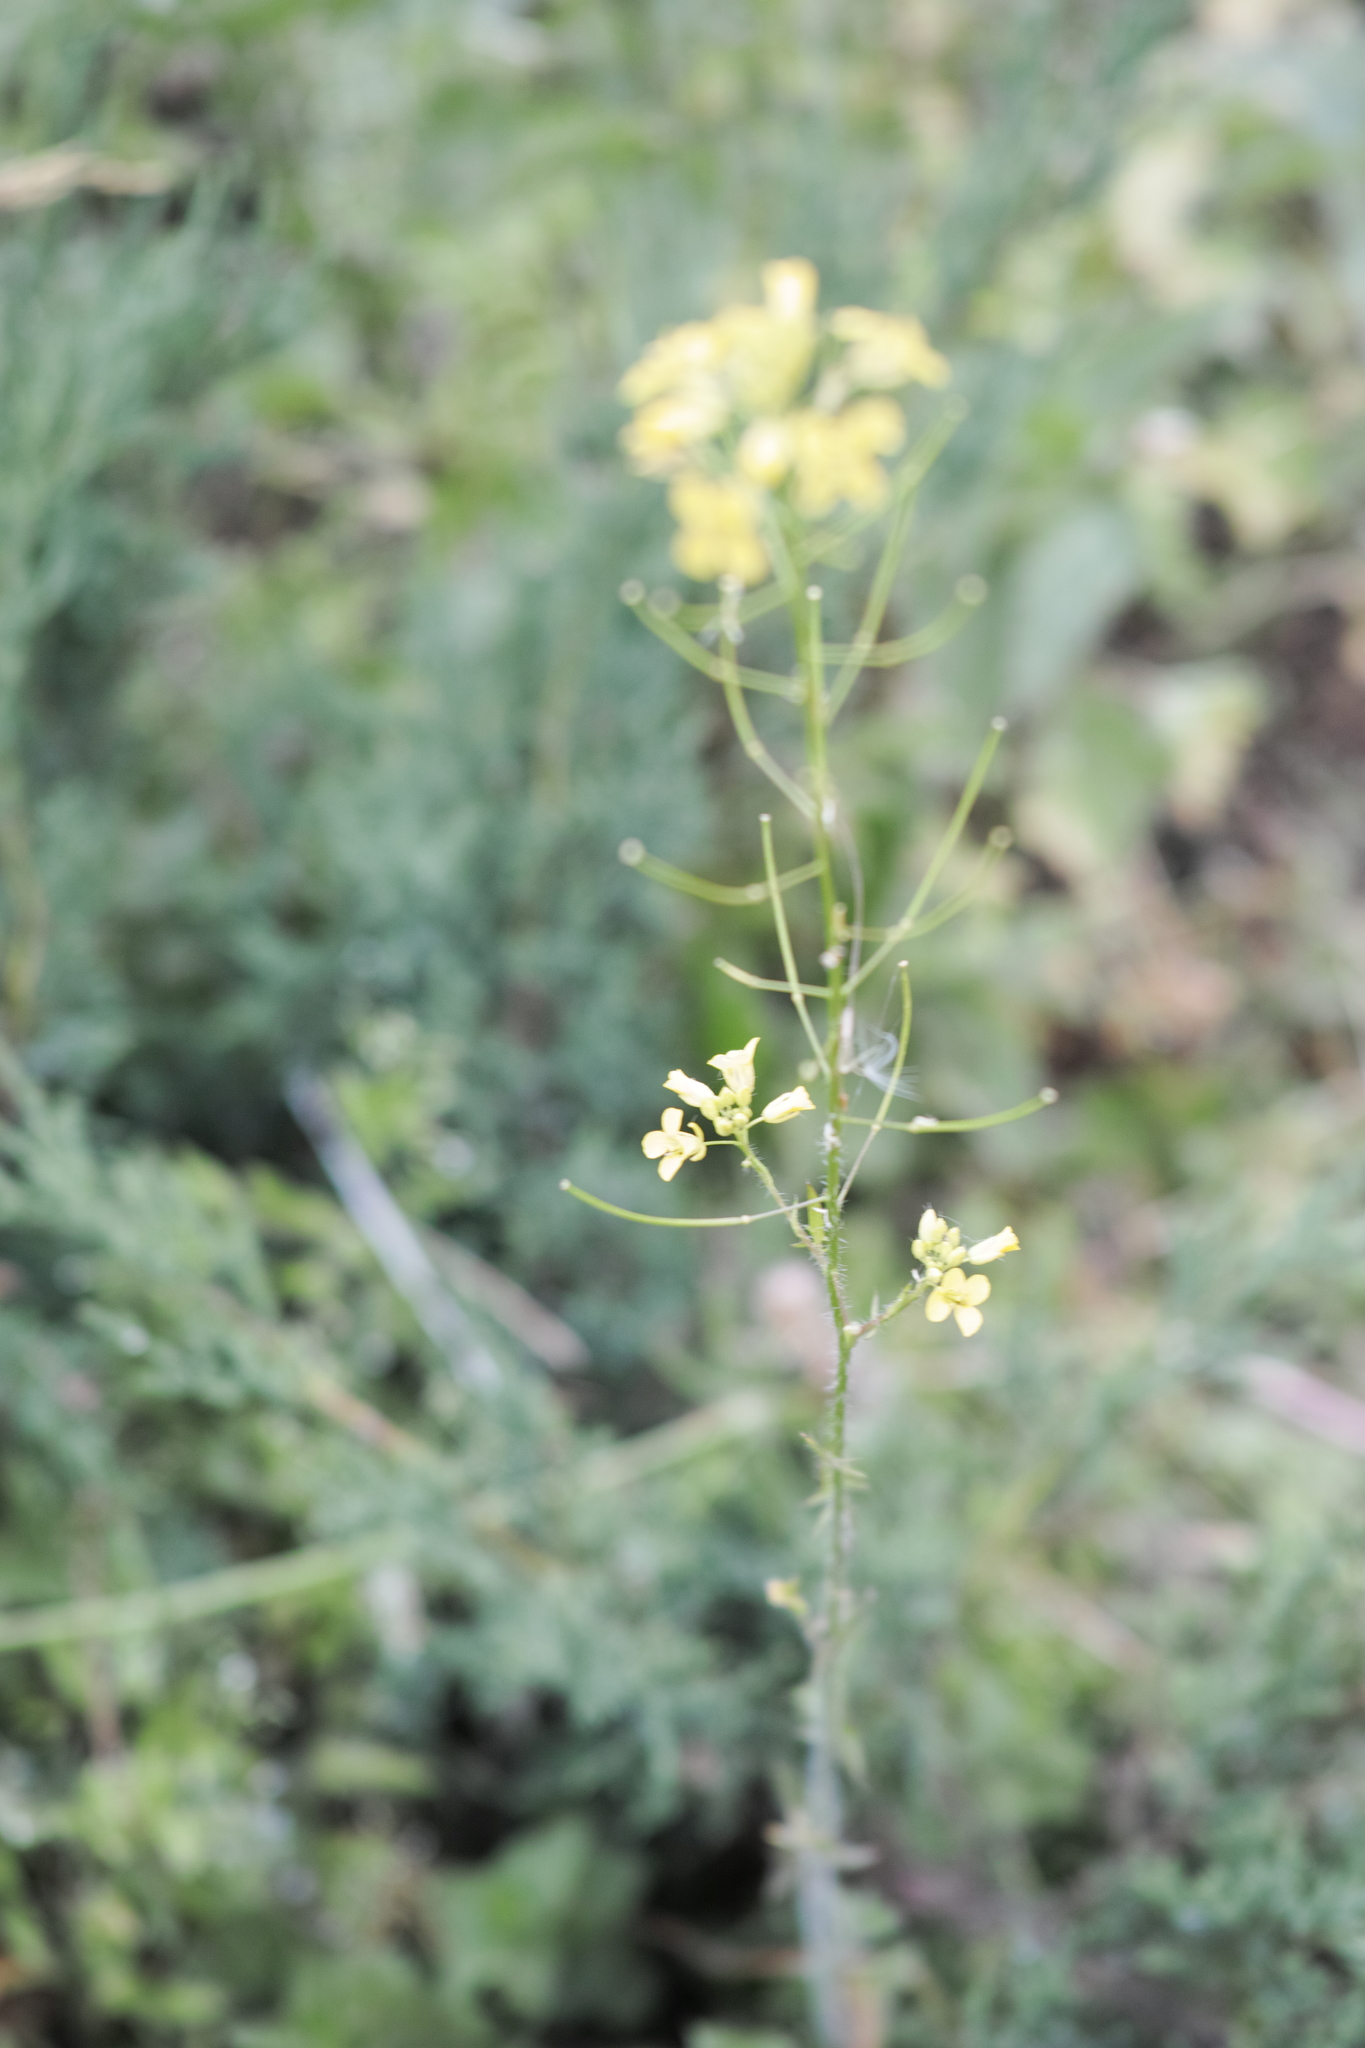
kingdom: Plantae
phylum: Tracheophyta
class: Magnoliopsida
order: Brassicales
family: Brassicaceae
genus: Sisymbrium
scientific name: Sisymbrium loeselii
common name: False london-rocket
